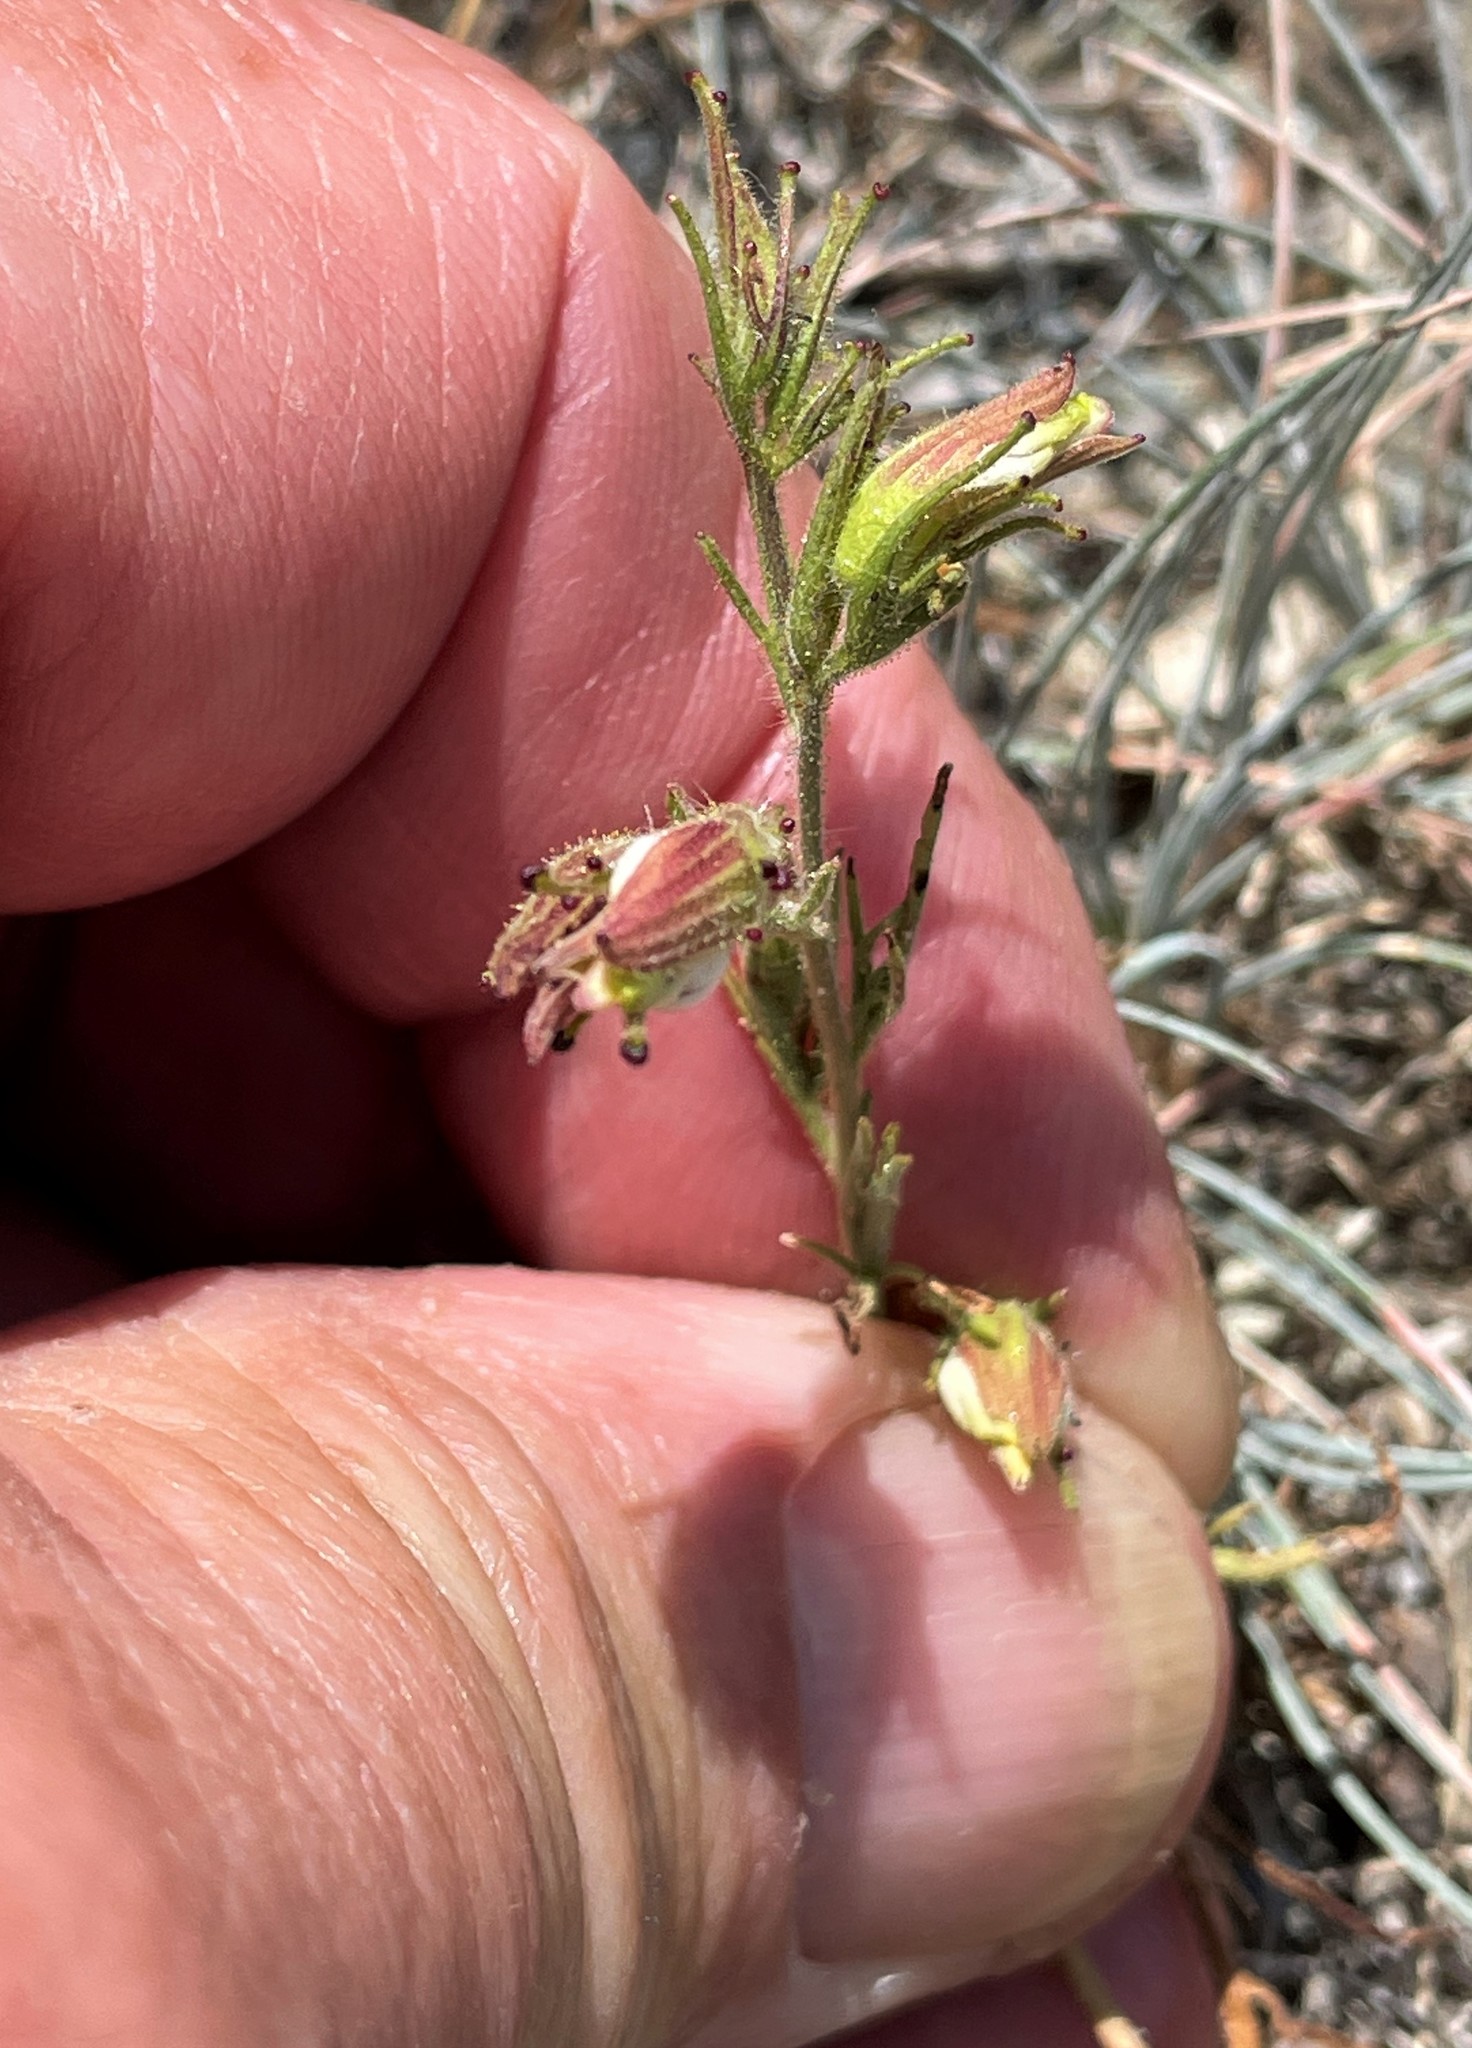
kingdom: Plantae
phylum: Tracheophyta
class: Magnoliopsida
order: Lamiales
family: Orobanchaceae
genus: Cordylanthus
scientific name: Cordylanthus tenuis
